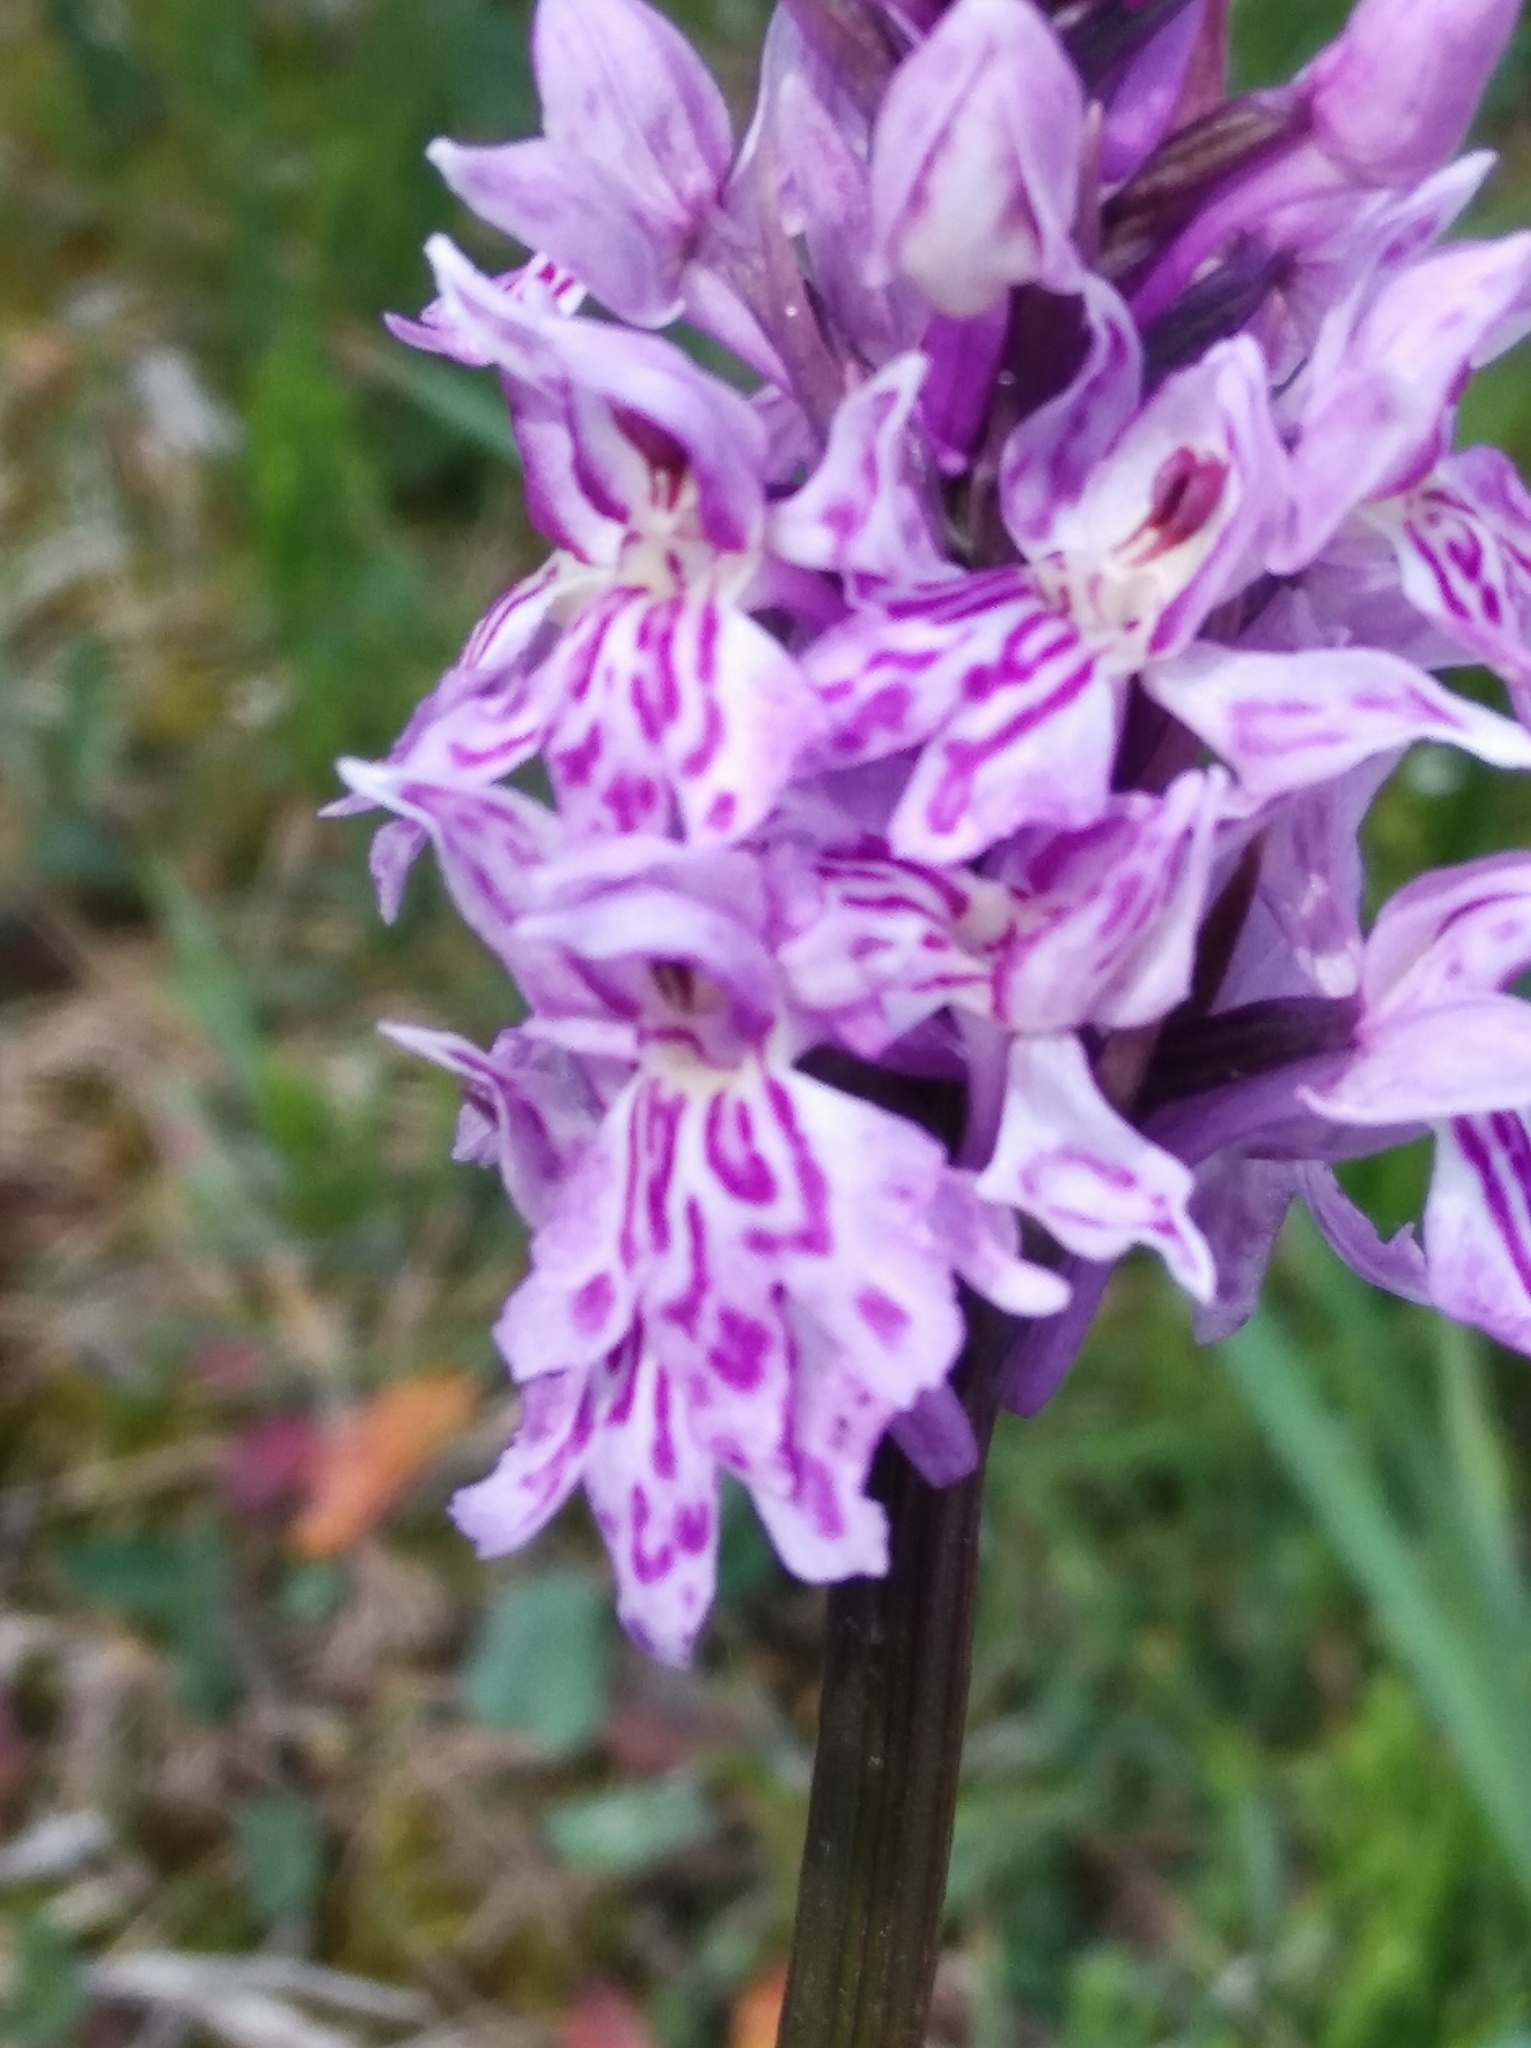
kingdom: Plantae
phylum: Tracheophyta
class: Liliopsida
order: Asparagales
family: Orchidaceae
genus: Dactylorhiza
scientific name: Dactylorhiza maculata
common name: Heath spotted-orchid
